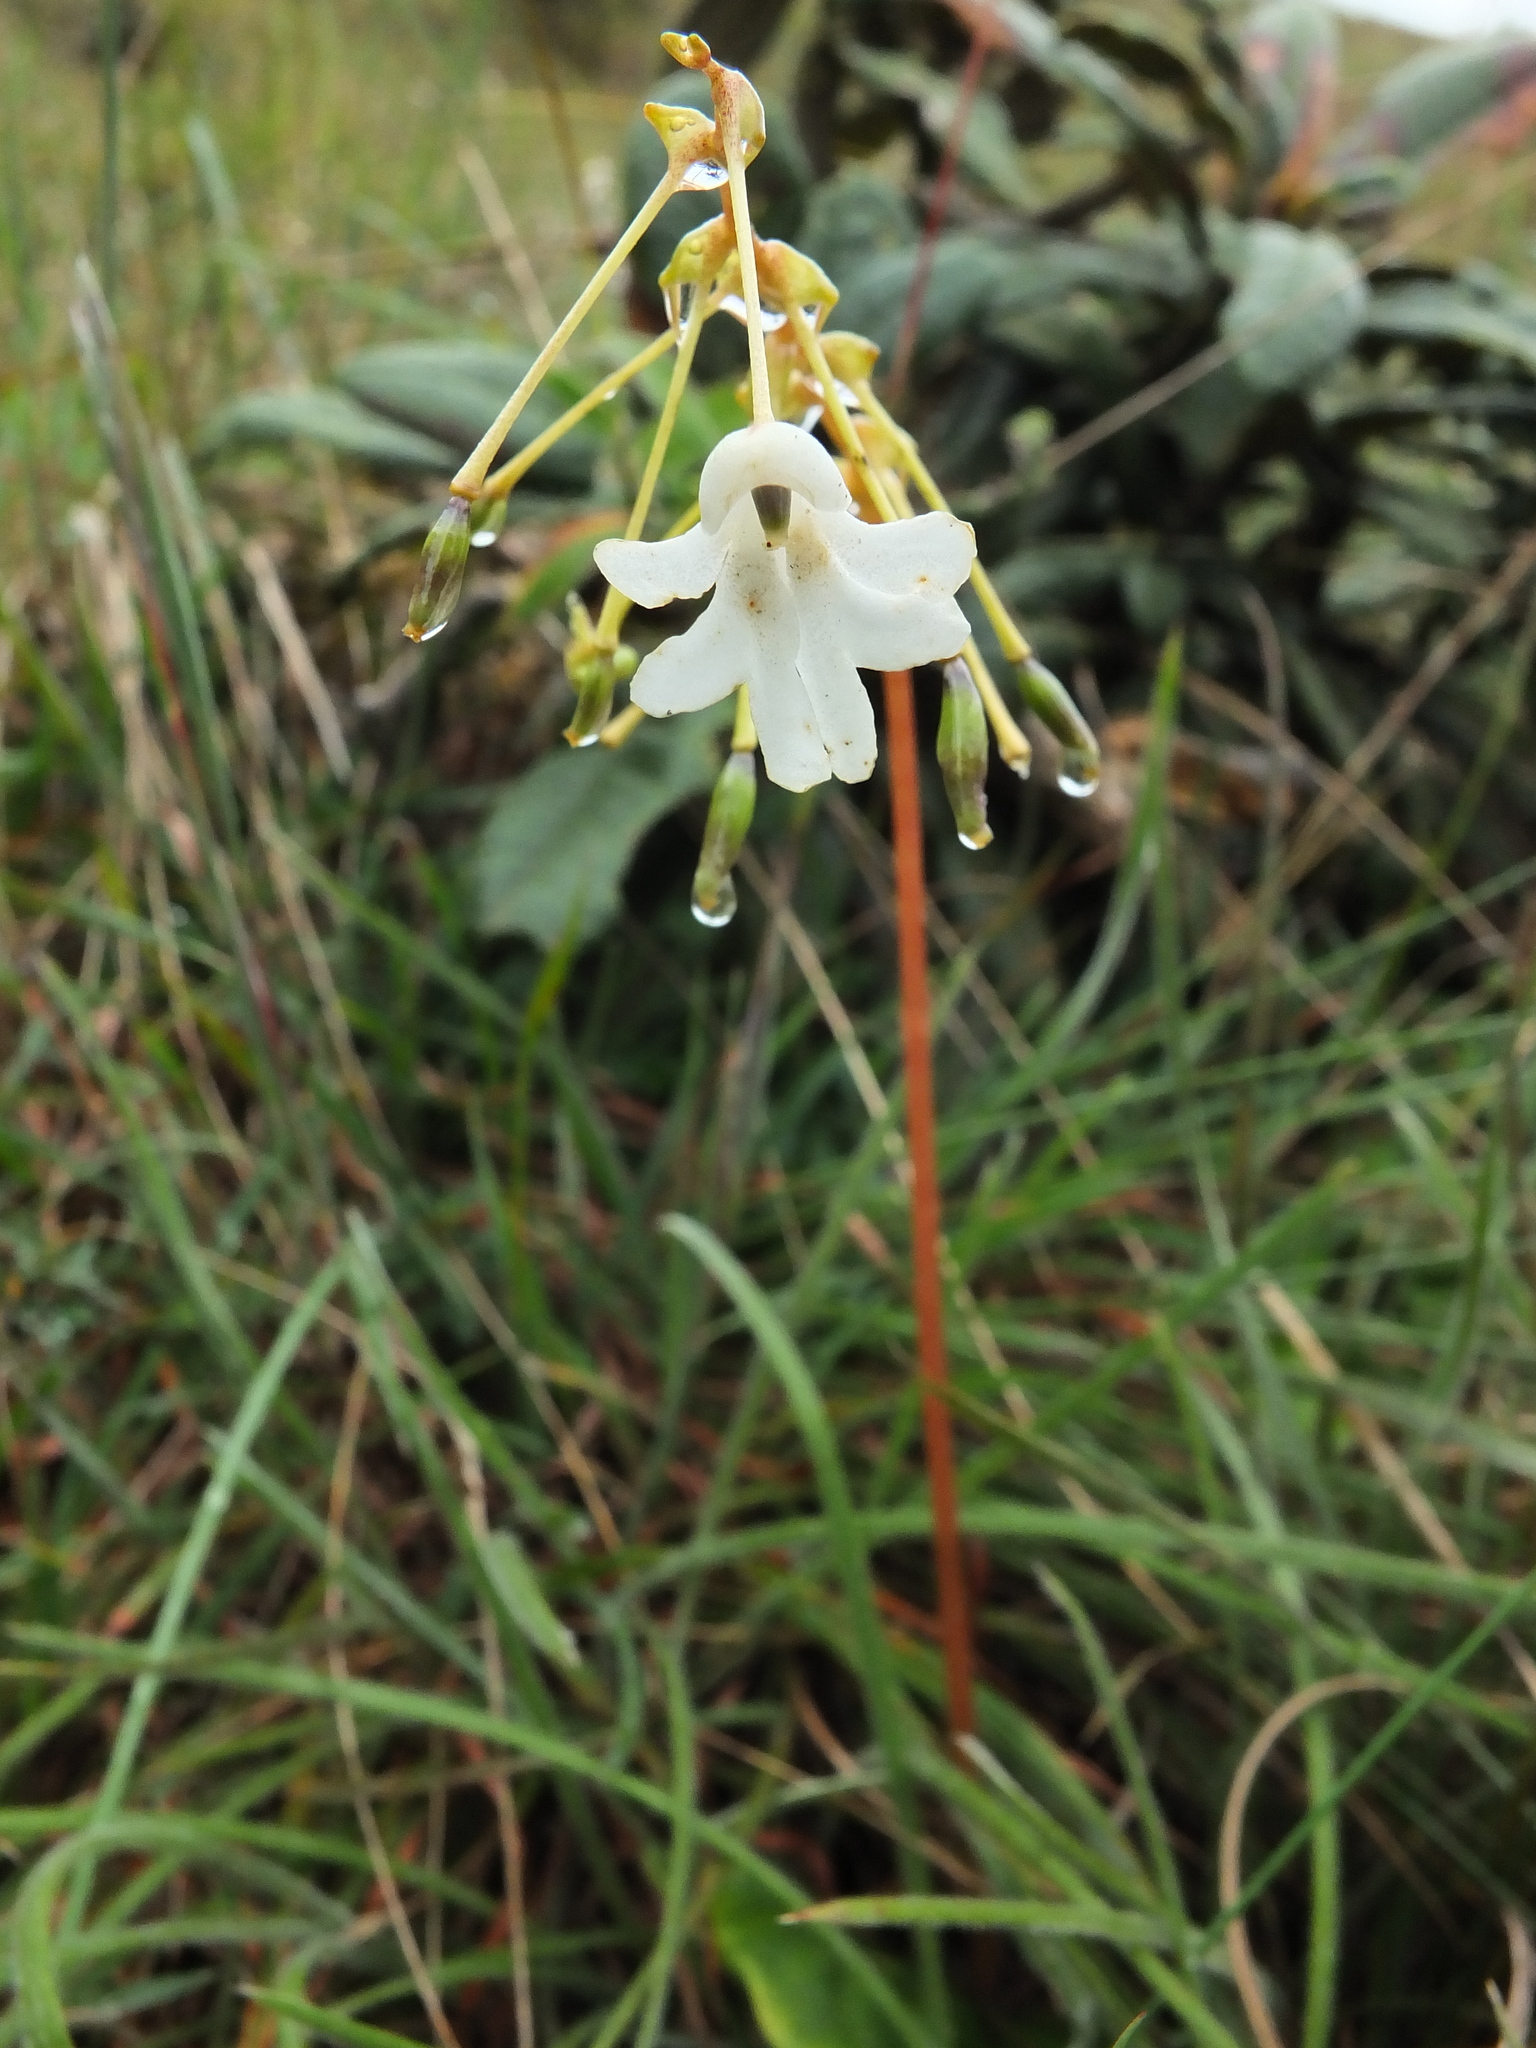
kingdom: Plantae
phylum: Tracheophyta
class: Magnoliopsida
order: Ericales
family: Balsaminaceae
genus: Impatiens
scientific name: Impatiens clavicornu
